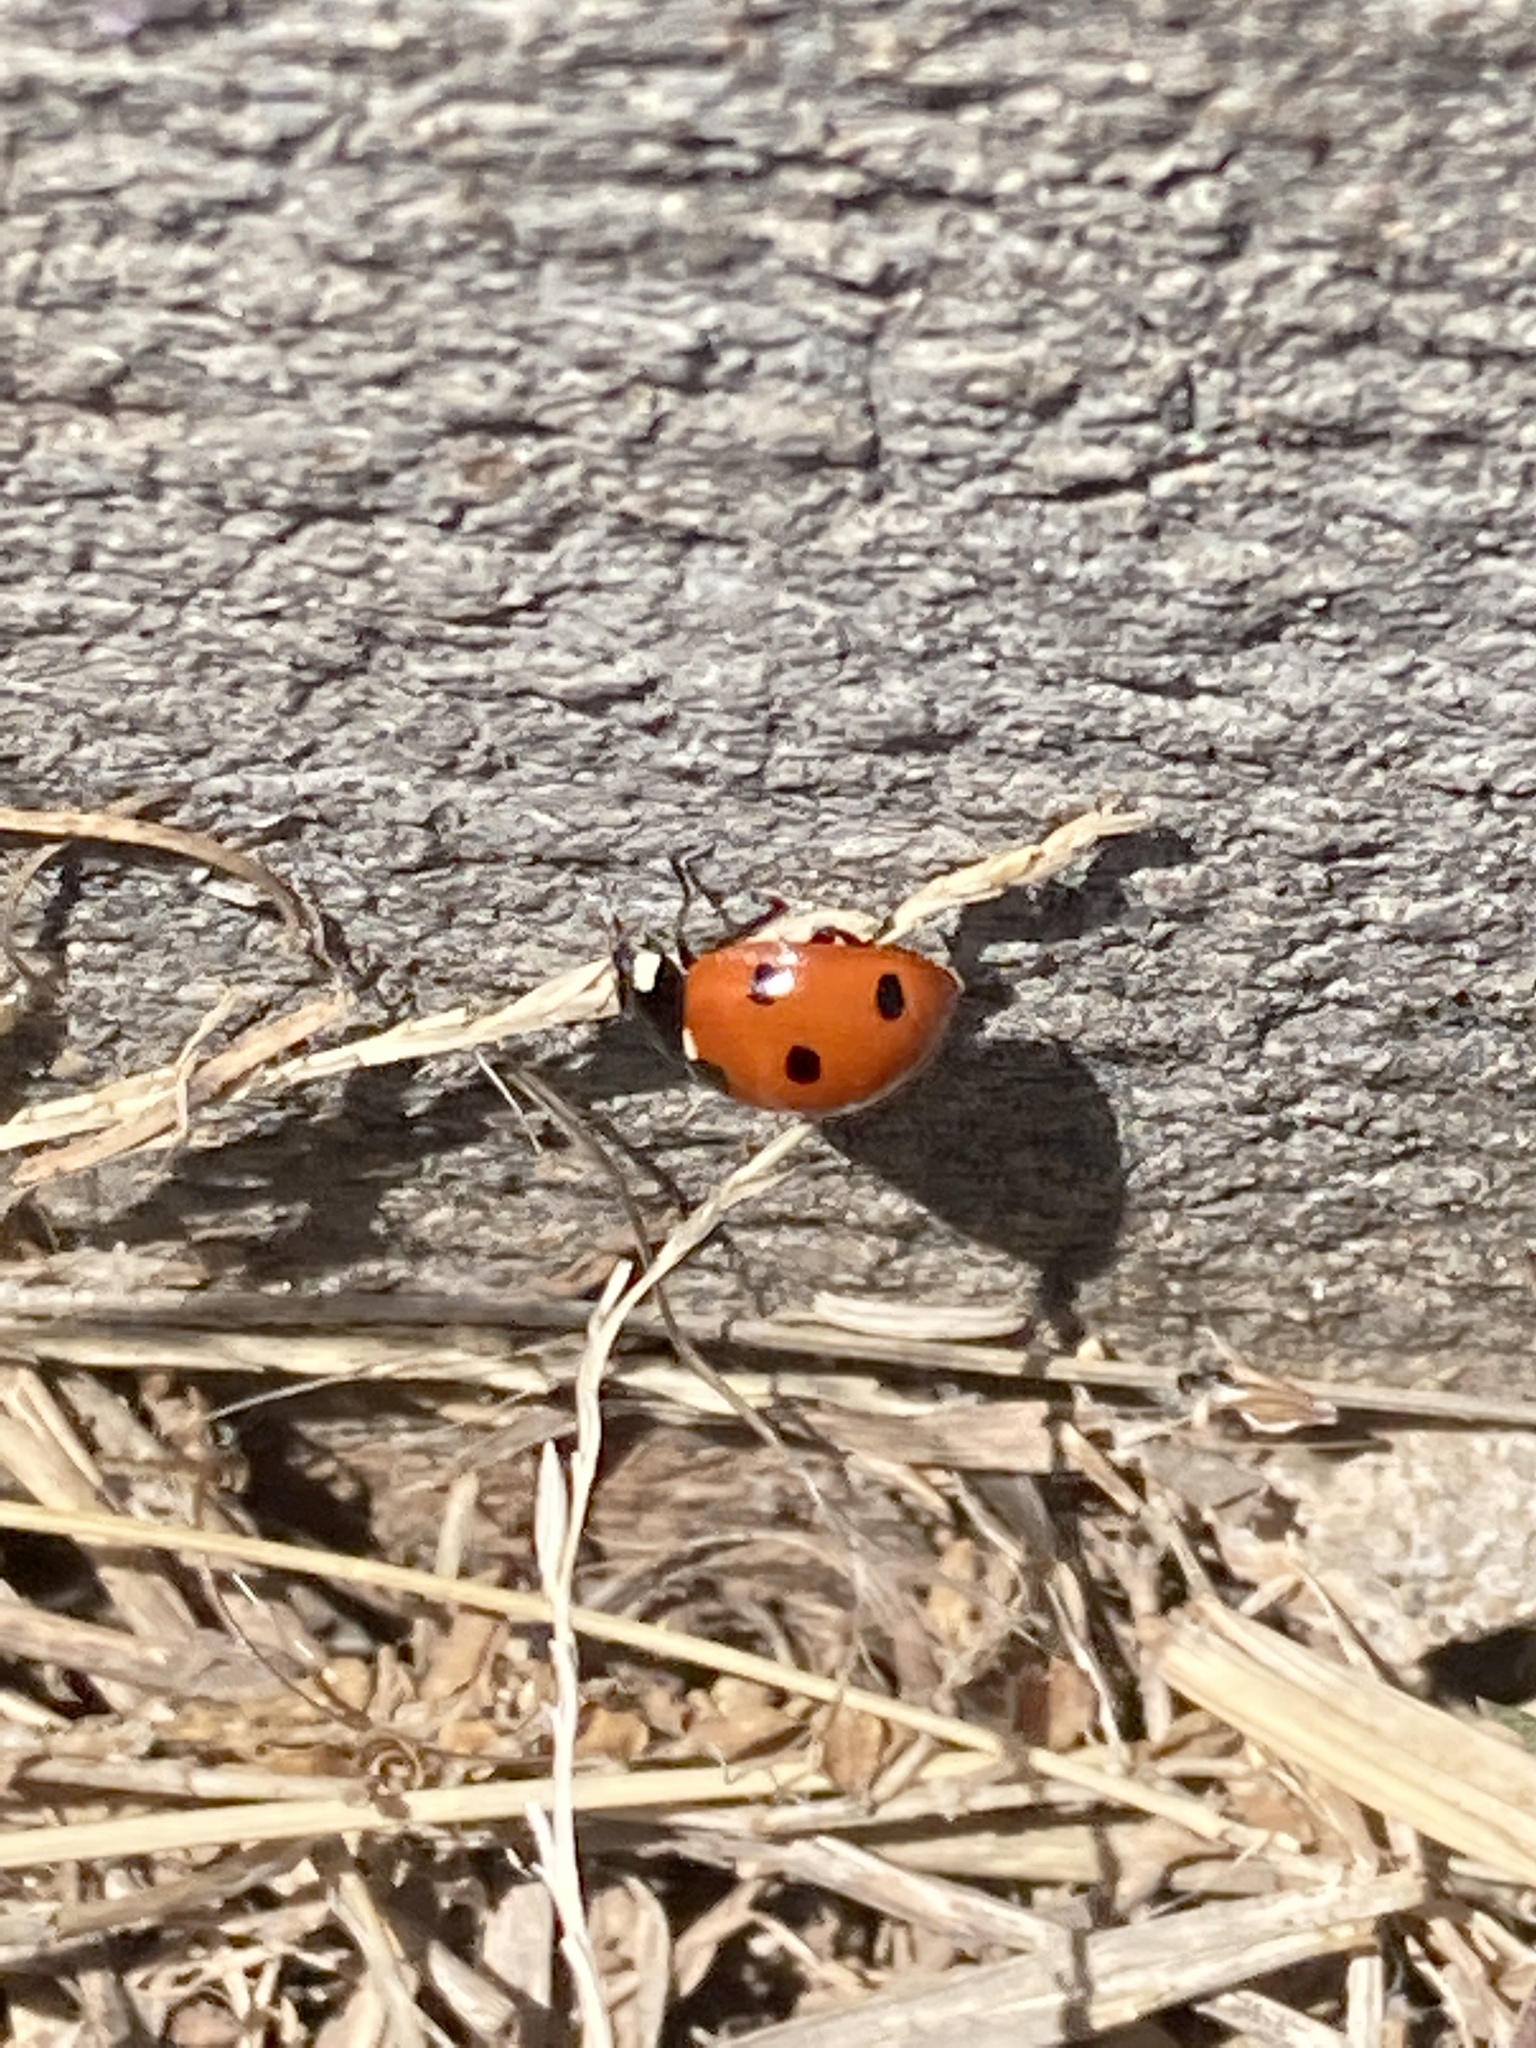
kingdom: Animalia
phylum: Arthropoda
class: Insecta
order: Coleoptera
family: Coccinellidae
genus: Coccinella
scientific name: Coccinella septempunctata
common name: Sevenspotted lady beetle
